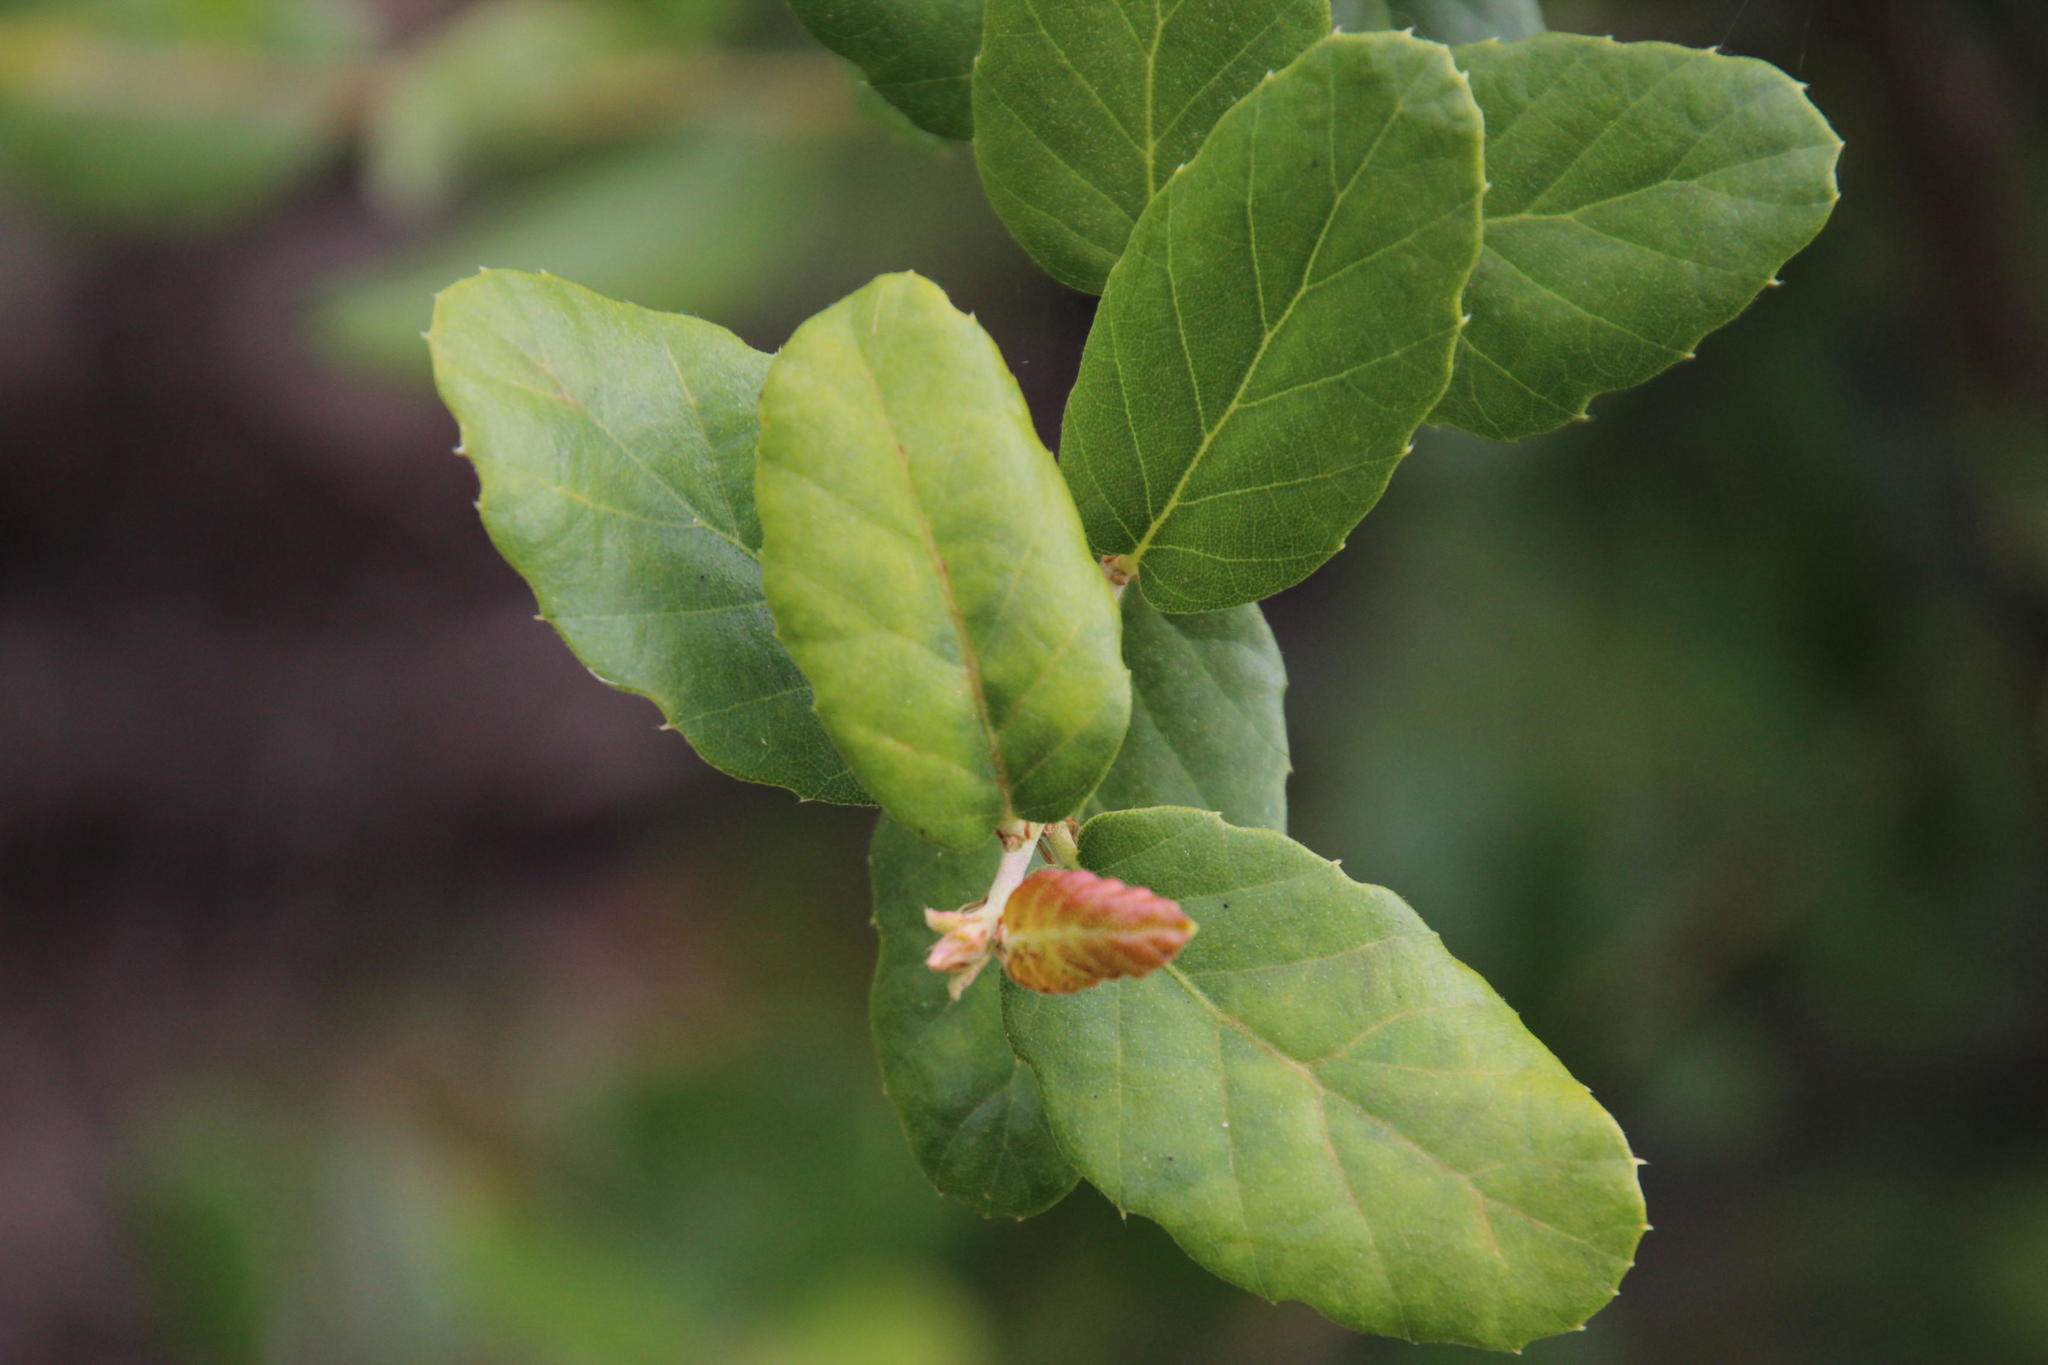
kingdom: Plantae
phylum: Tracheophyta
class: Magnoliopsida
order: Fagales
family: Fagaceae
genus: Quercus
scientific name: Quercus suber
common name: Cork oak
